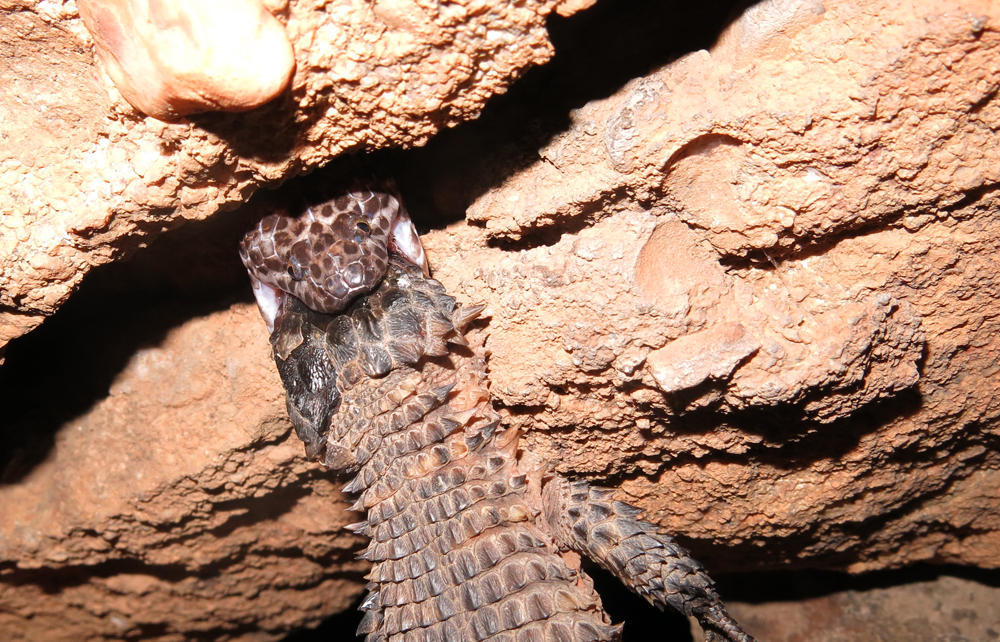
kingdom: Animalia
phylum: Chordata
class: Squamata
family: Lamprophiidae
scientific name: Lamprophiidae
